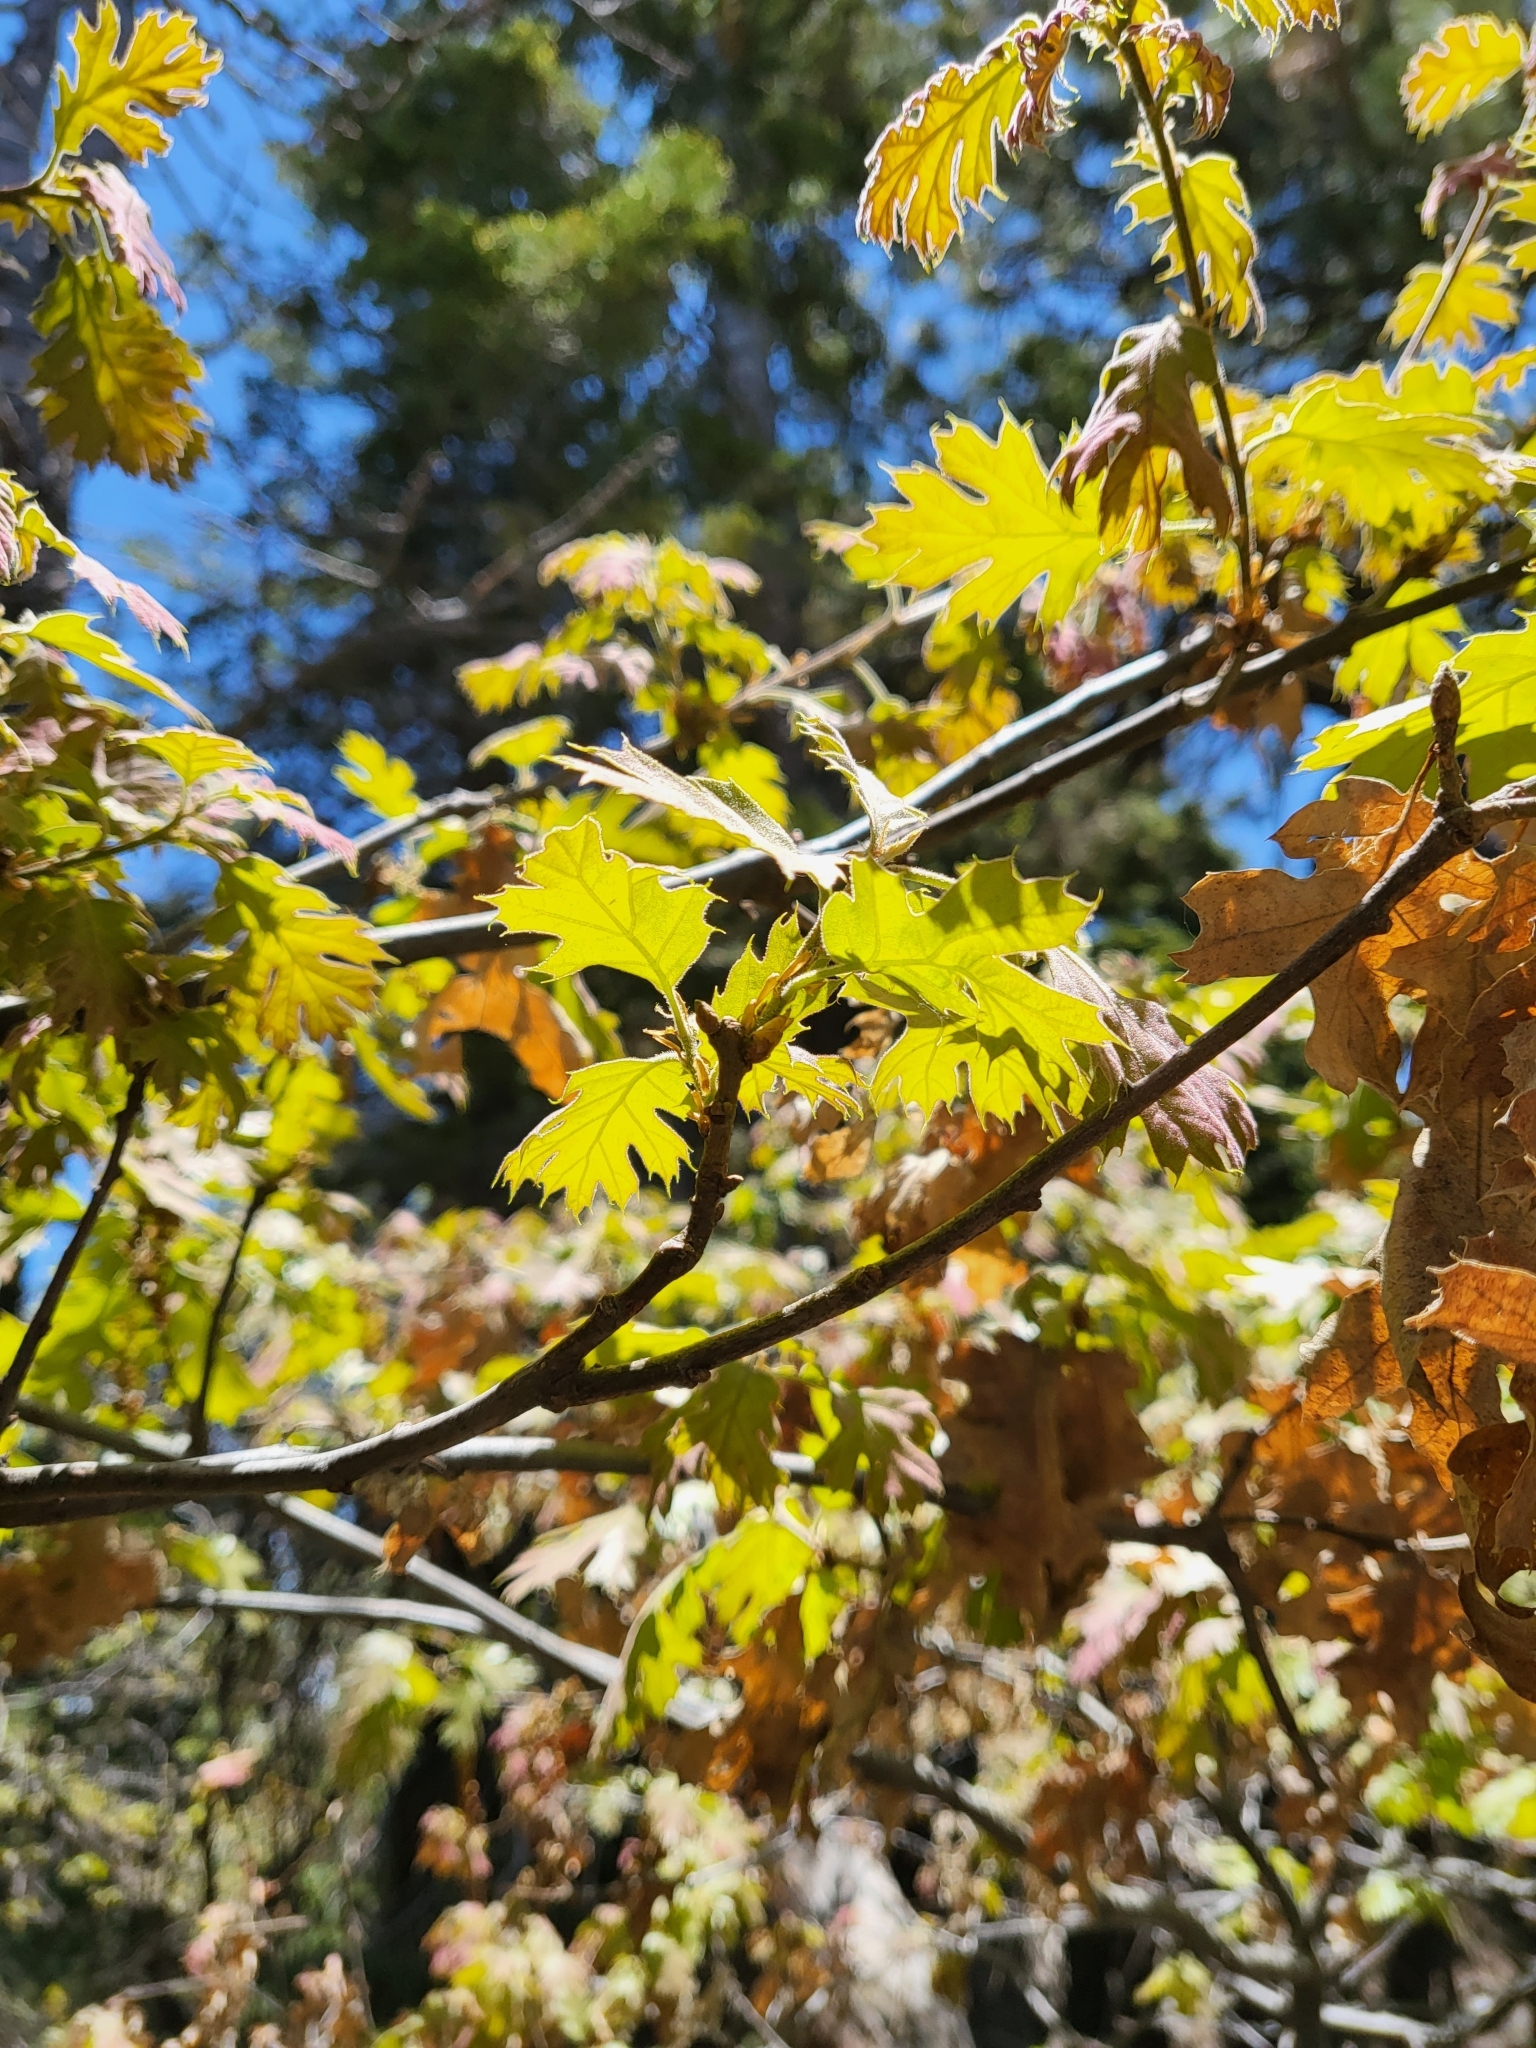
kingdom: Plantae
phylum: Tracheophyta
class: Magnoliopsida
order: Fagales
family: Fagaceae
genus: Quercus
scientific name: Quercus kelloggii
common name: California black oak
